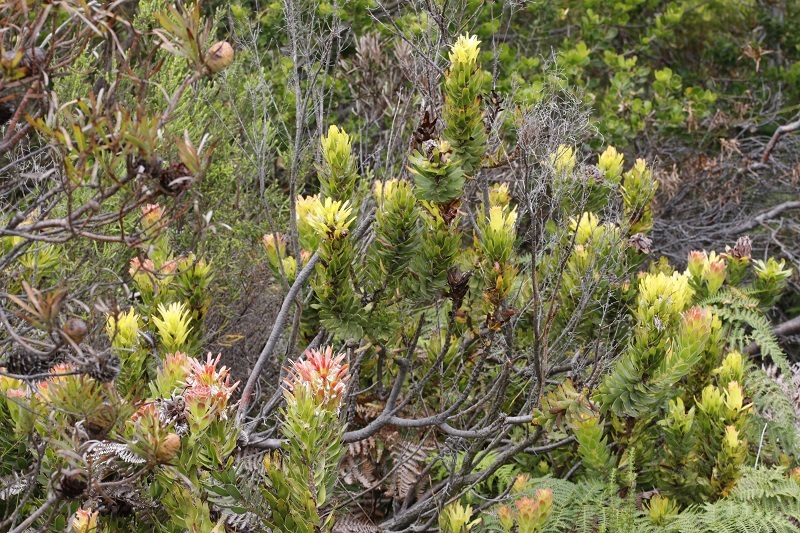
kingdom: Plantae
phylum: Tracheophyta
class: Magnoliopsida
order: Proteales
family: Proteaceae
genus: Mimetes
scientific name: Mimetes cucullatus
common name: Common pagoda
